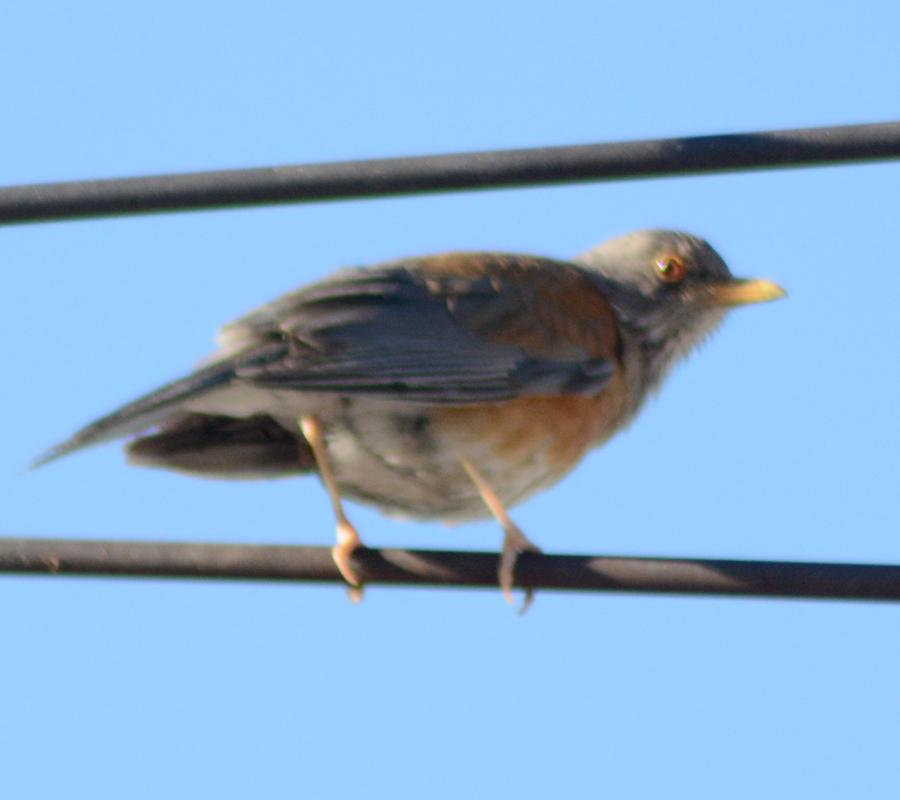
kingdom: Animalia
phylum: Chordata
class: Aves
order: Passeriformes
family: Turdidae
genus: Turdus
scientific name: Turdus rufopalliatus
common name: Rufous-backed robin
